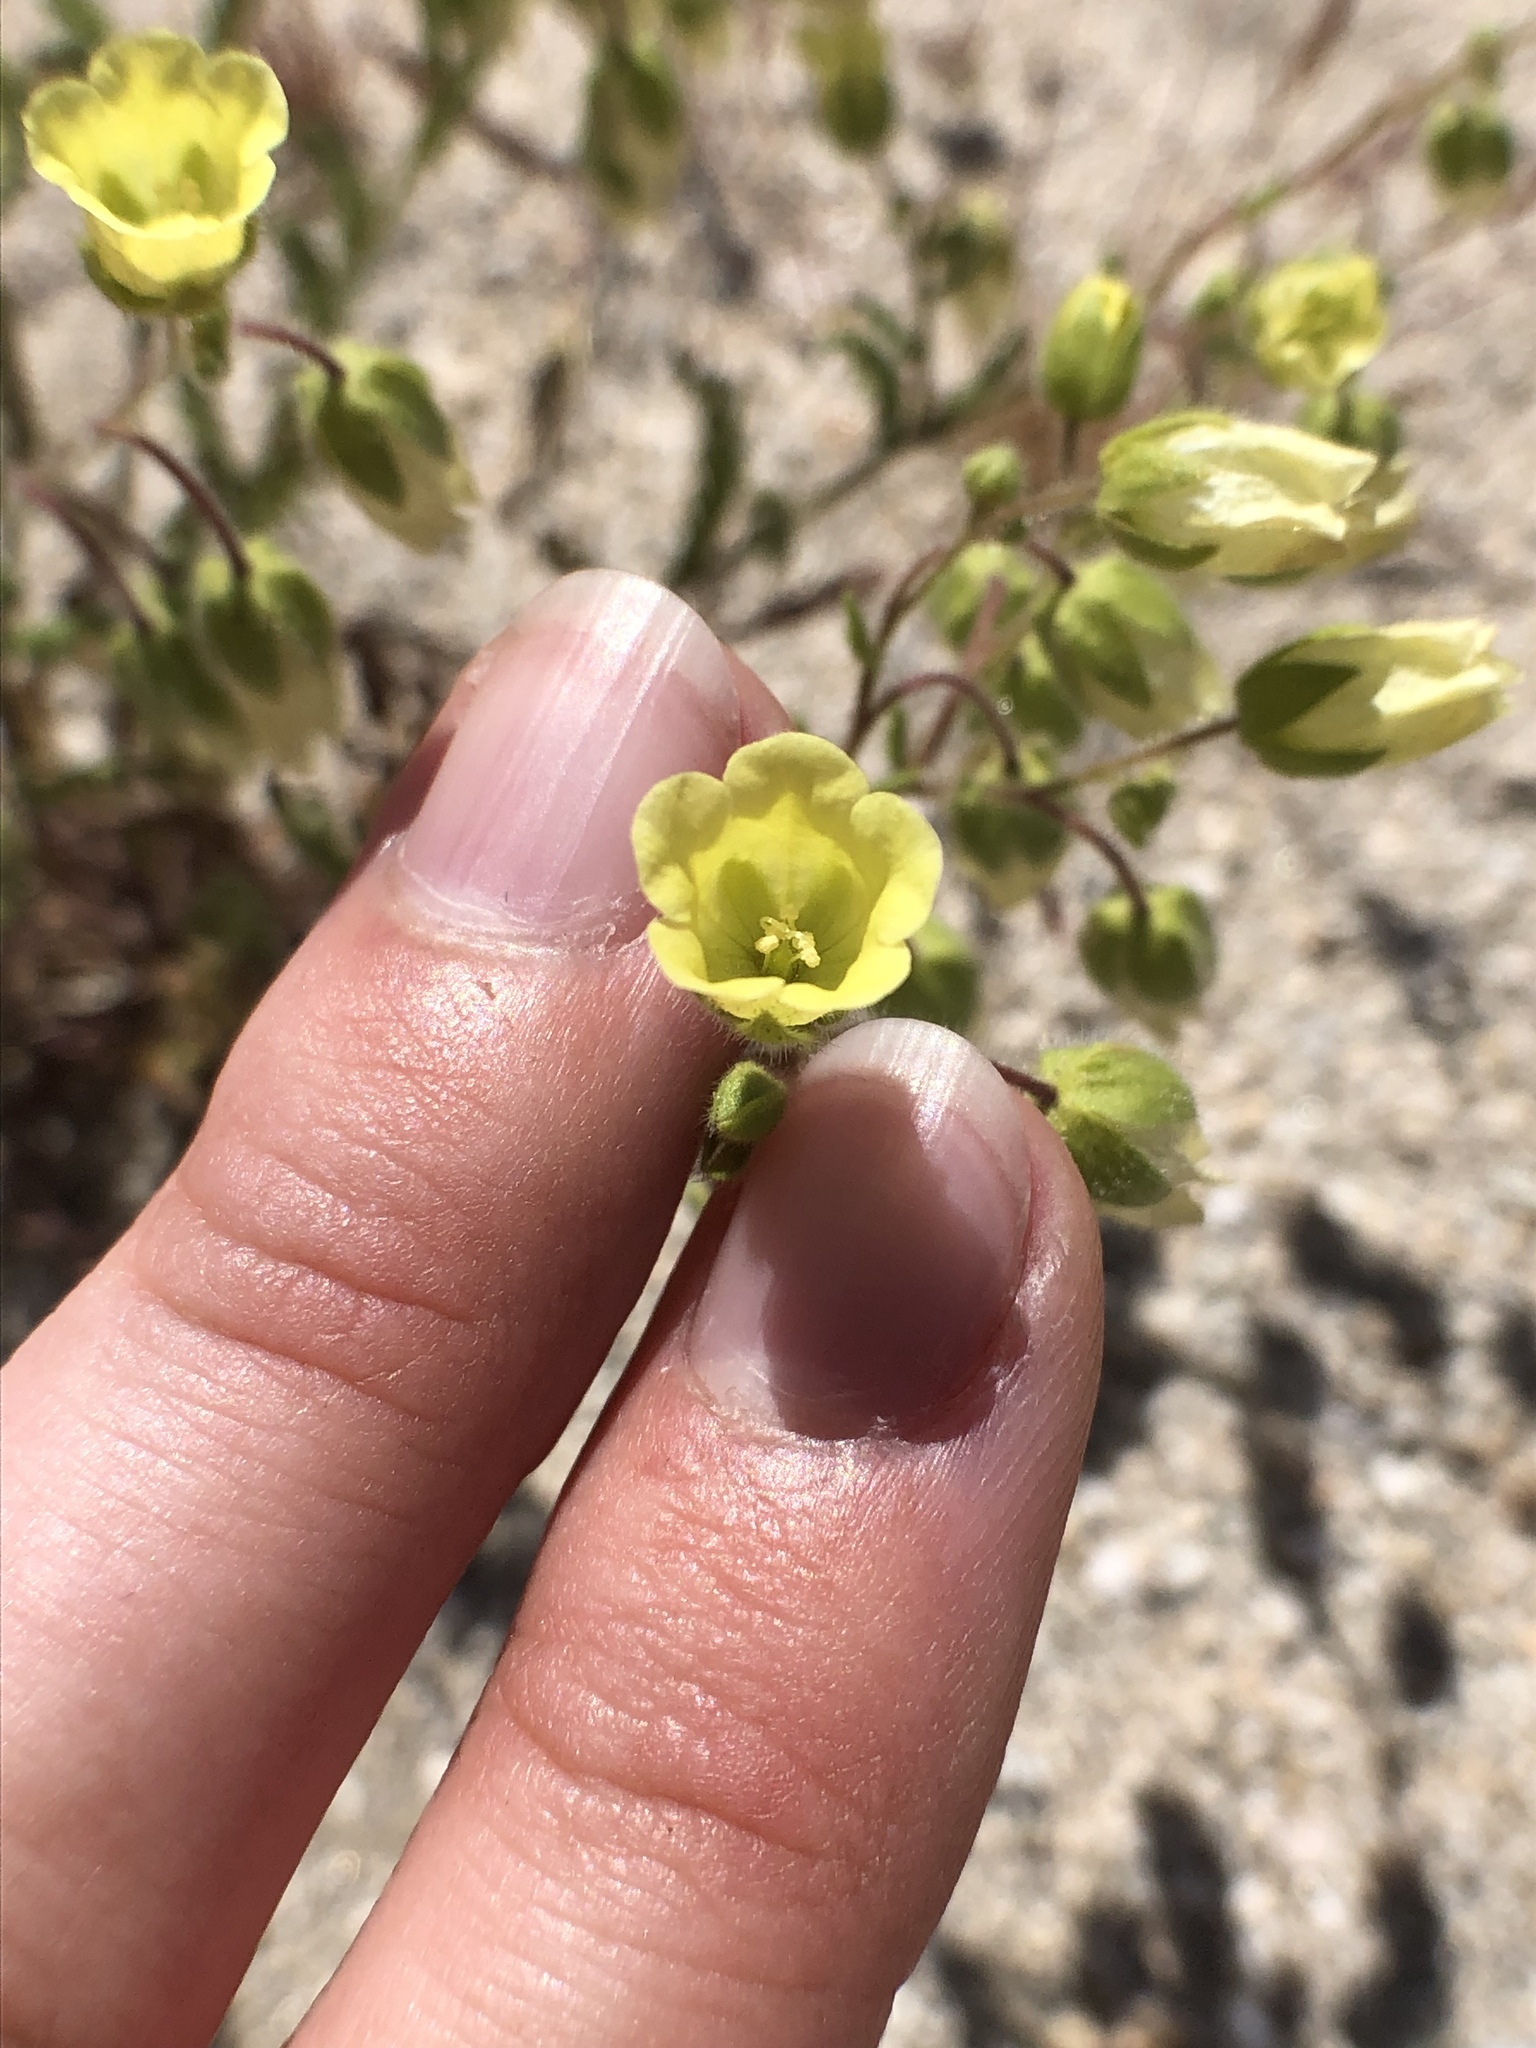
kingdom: Plantae
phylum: Tracheophyta
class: Magnoliopsida
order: Boraginales
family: Hydrophyllaceae
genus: Emmenanthe
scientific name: Emmenanthe penduliflora
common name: Whispering-bells
